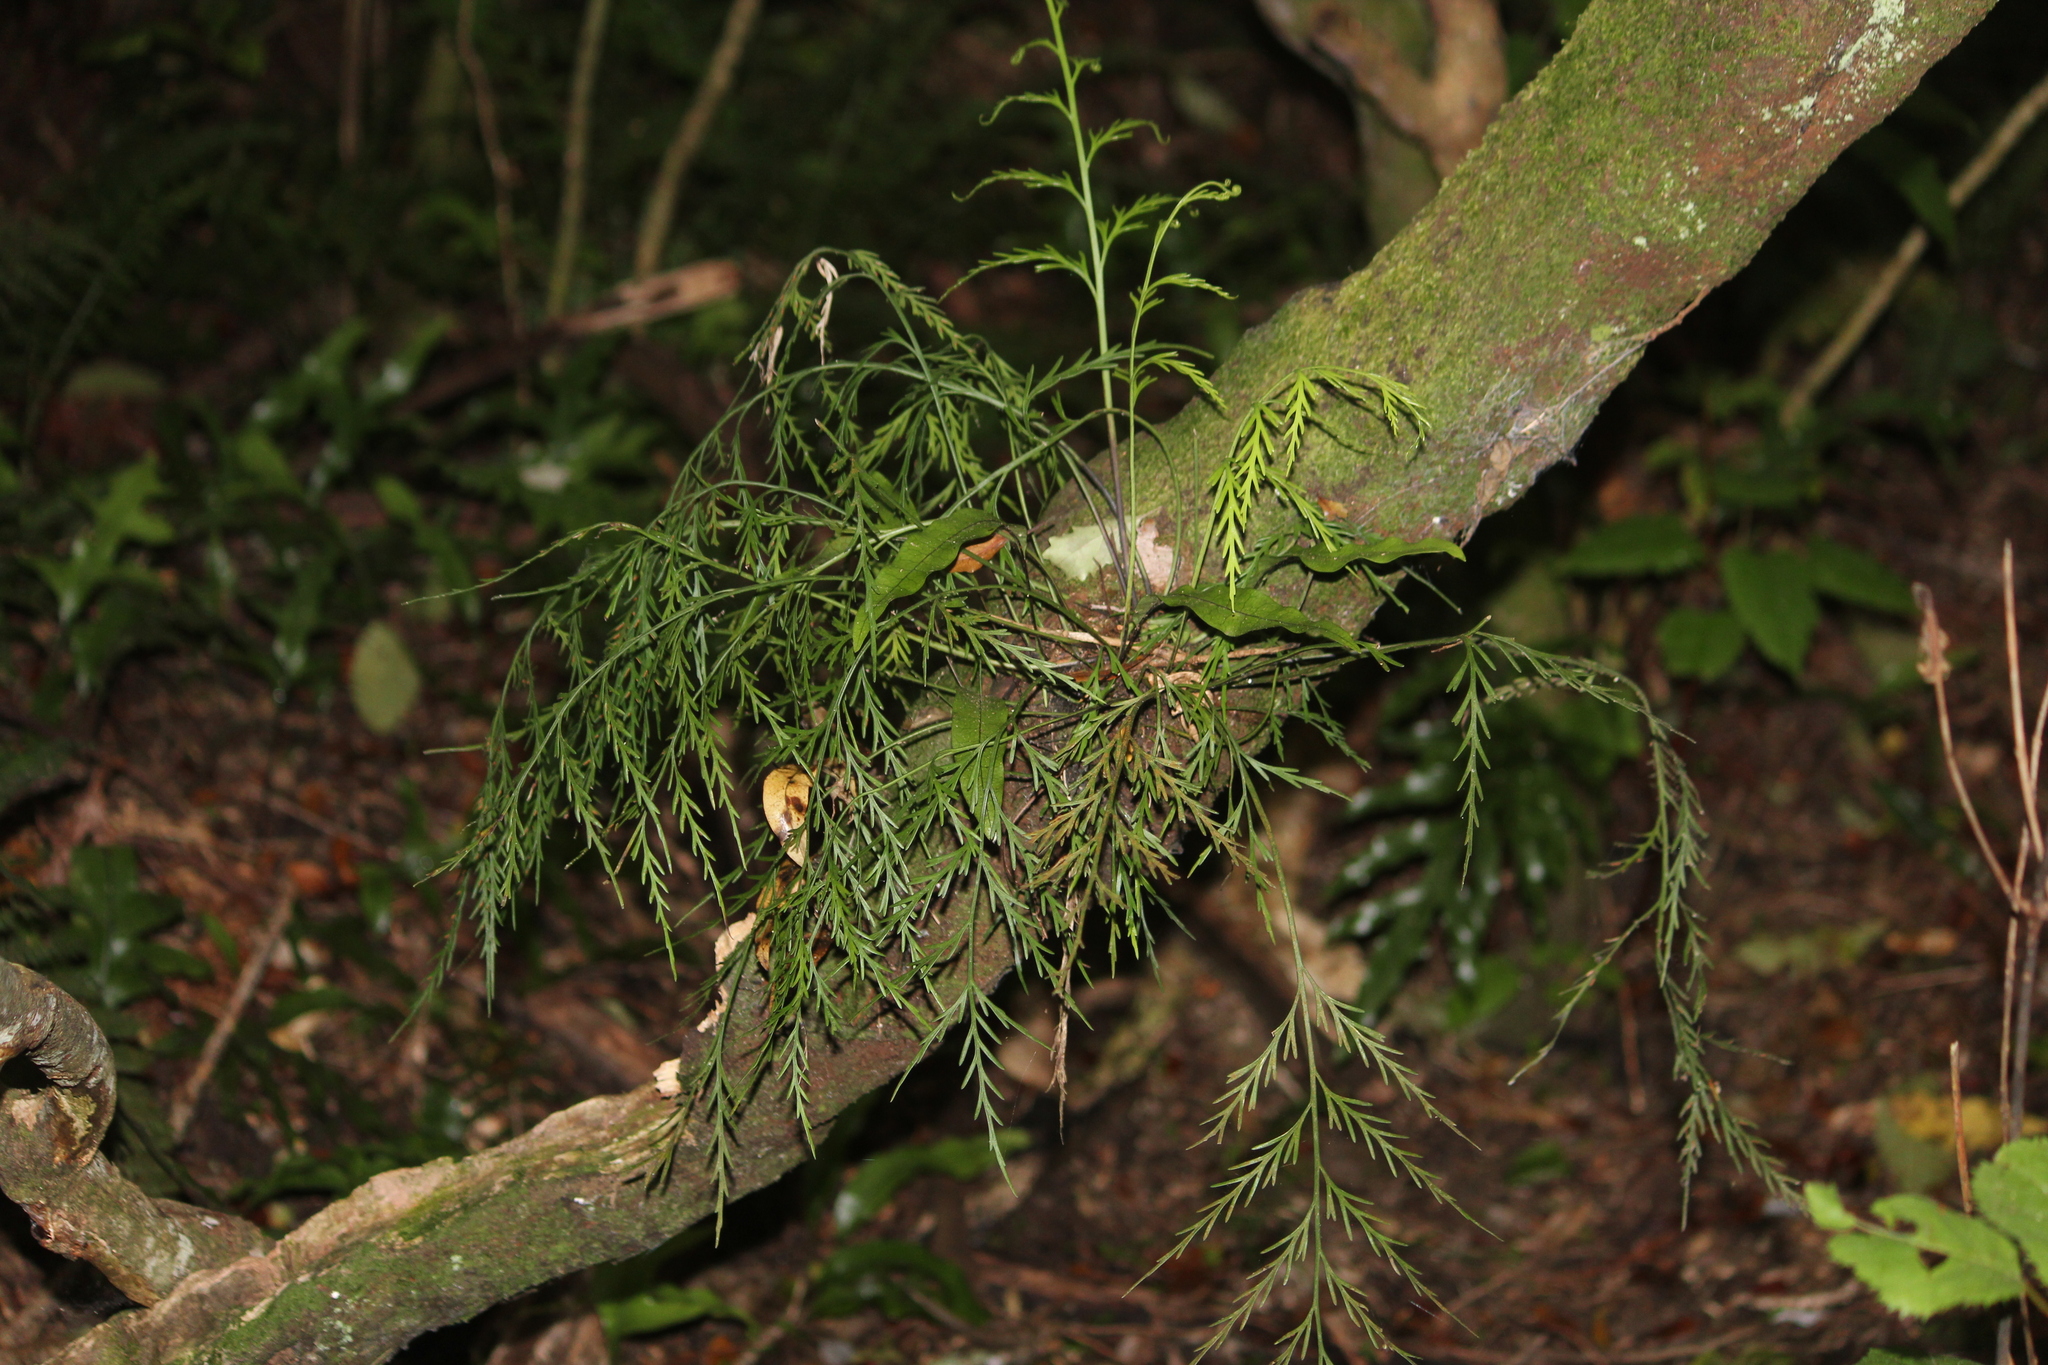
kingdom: Plantae
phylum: Tracheophyta
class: Polypodiopsida
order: Polypodiales
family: Aspleniaceae
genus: Asplenium
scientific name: Asplenium flaccidum
